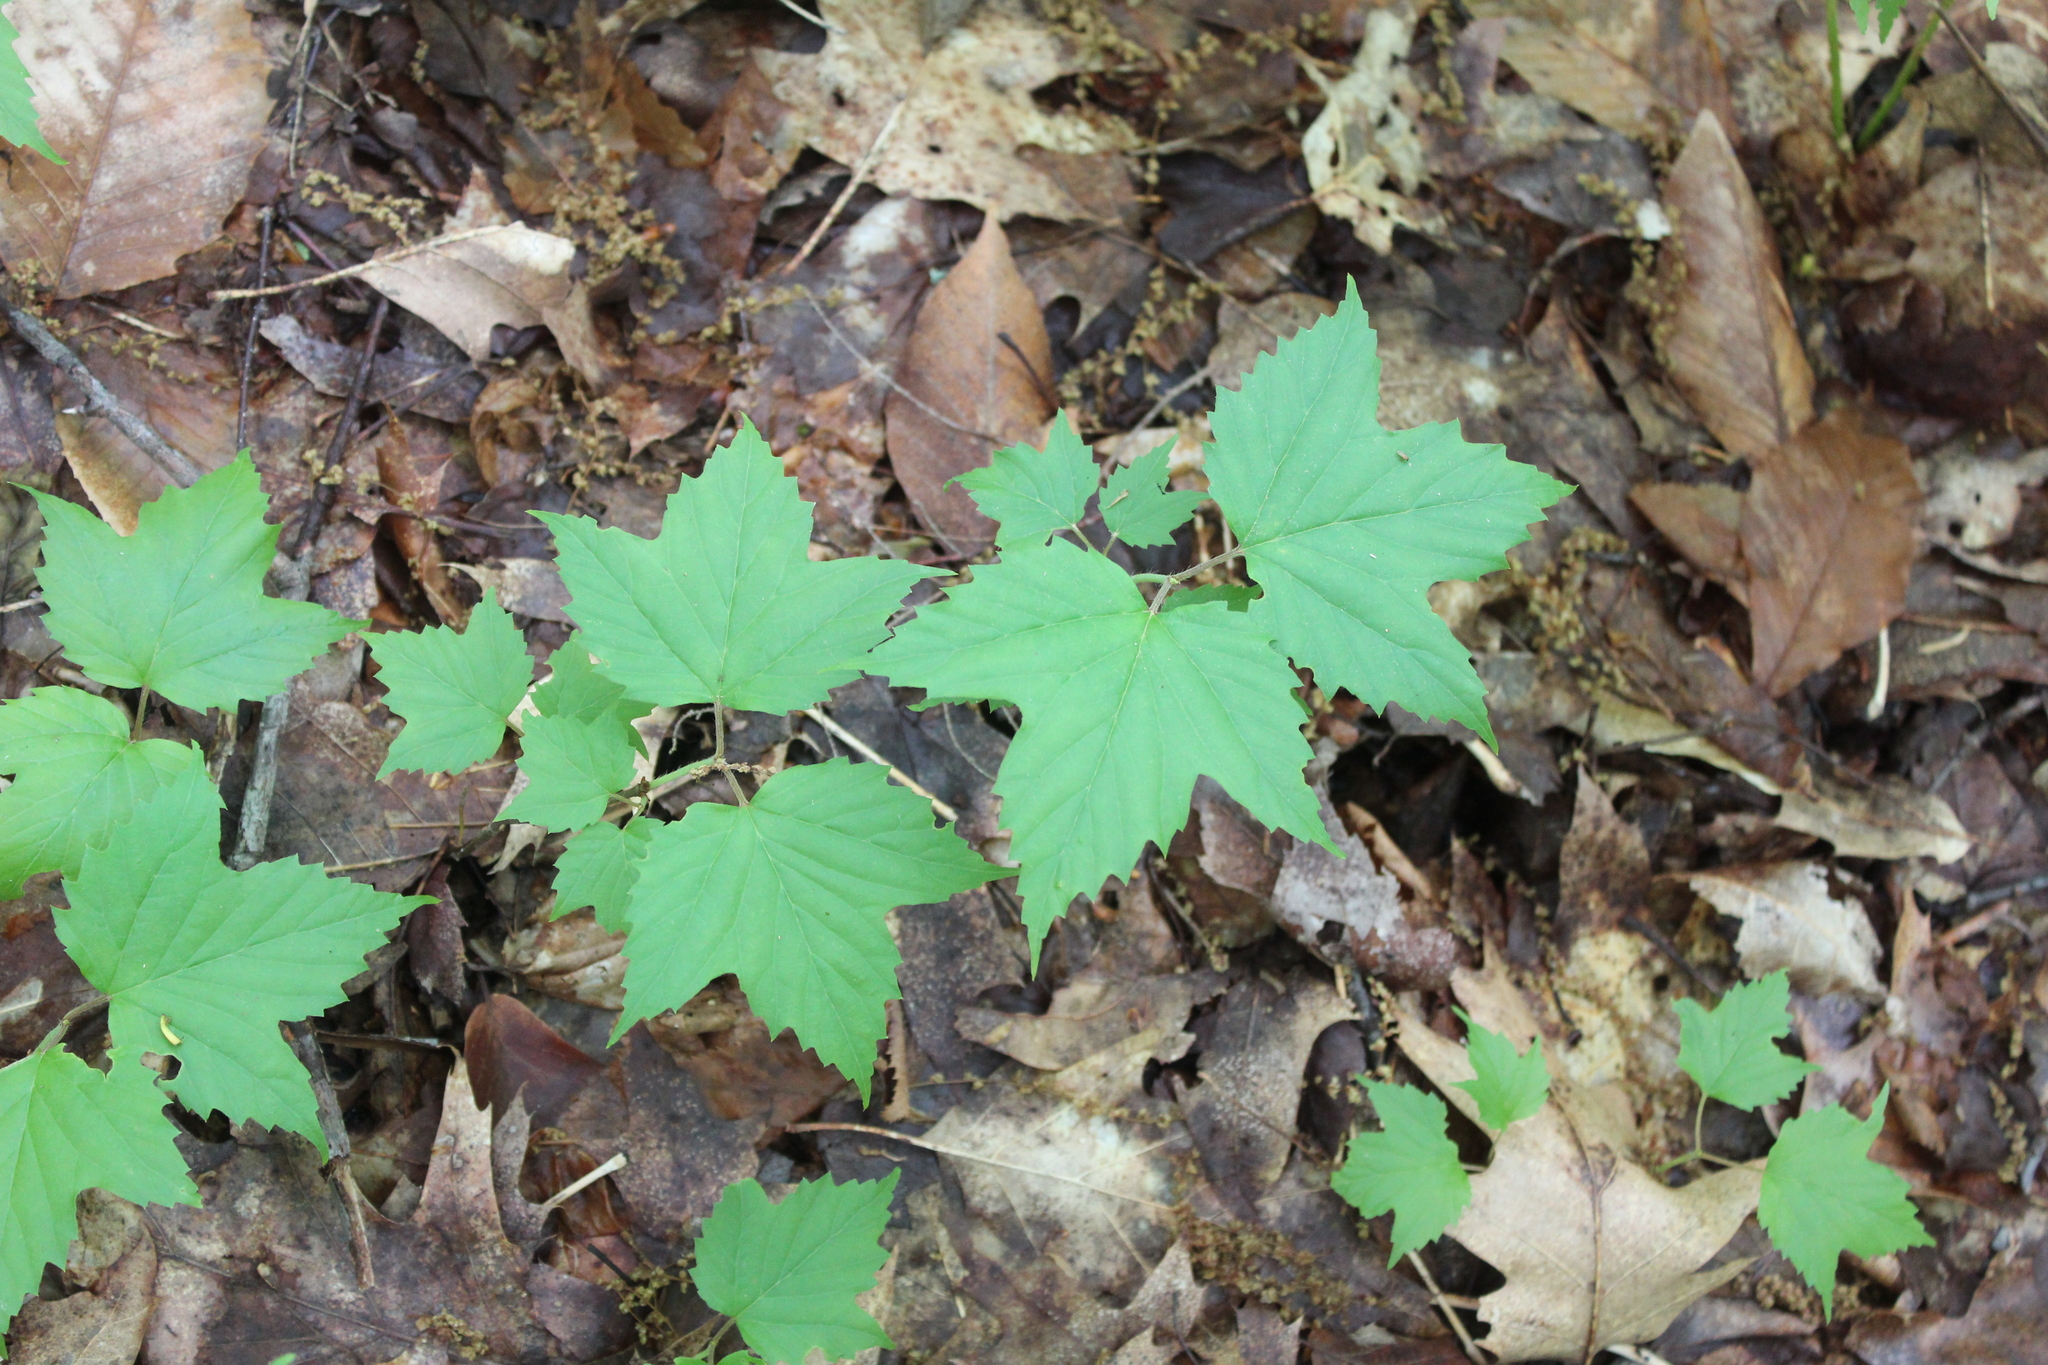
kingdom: Plantae
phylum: Tracheophyta
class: Magnoliopsida
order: Dipsacales
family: Viburnaceae
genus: Viburnum
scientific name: Viburnum acerifolium
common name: Dockmackie
